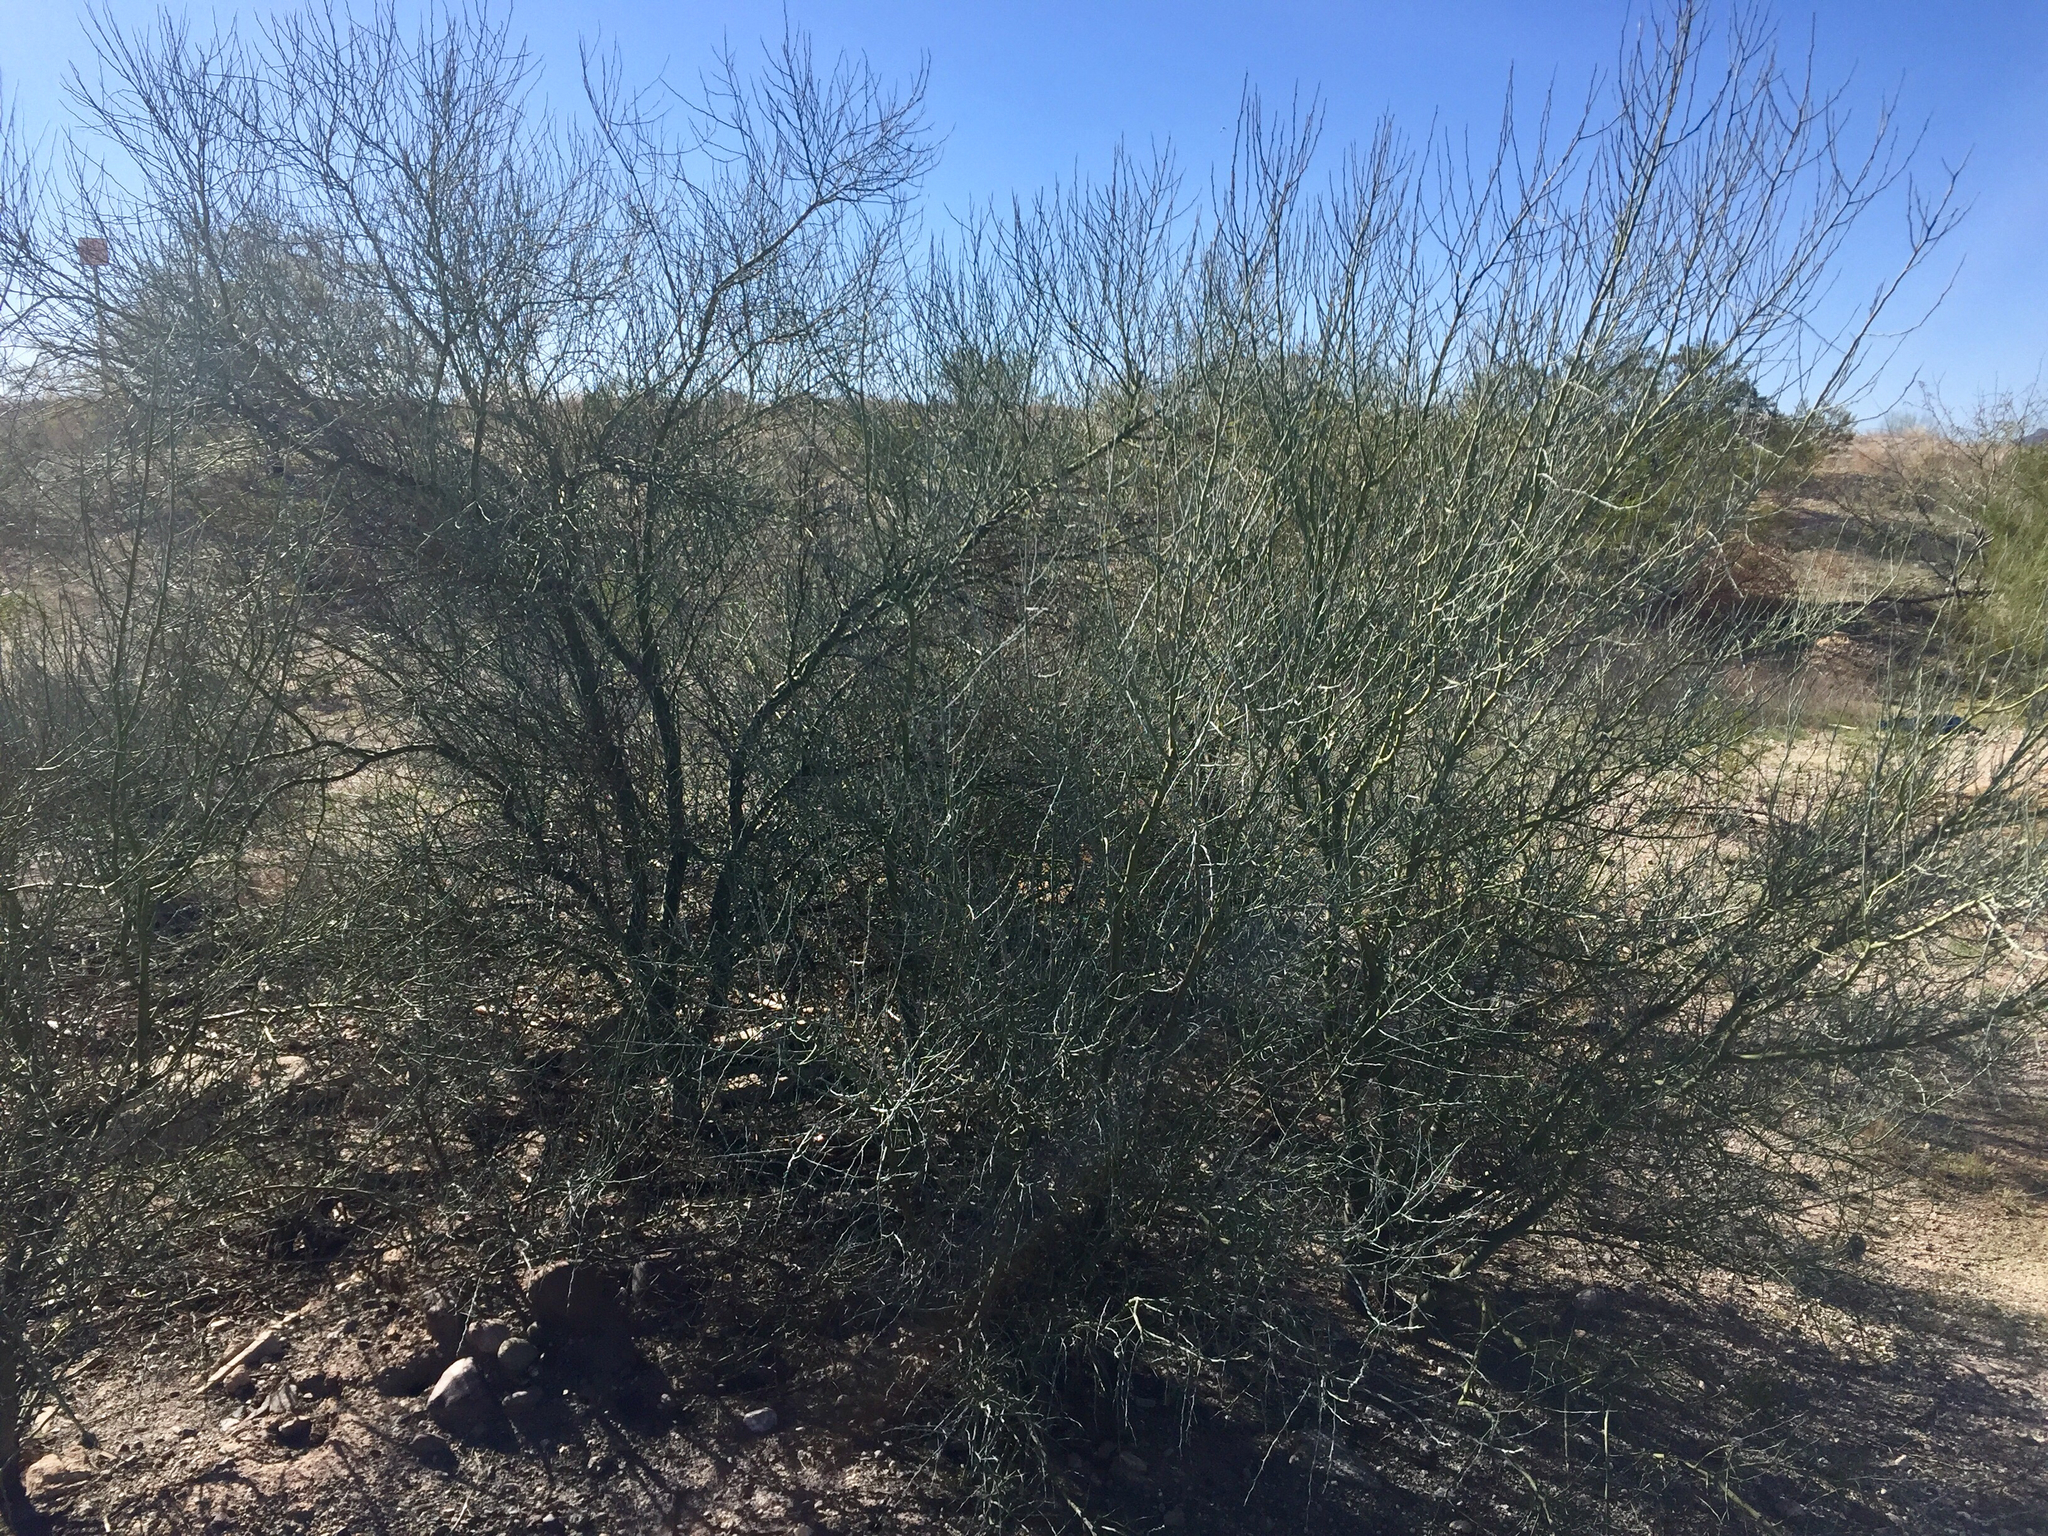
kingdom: Plantae
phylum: Tracheophyta
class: Magnoliopsida
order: Fabales
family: Fabaceae
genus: Parkinsonia
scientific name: Parkinsonia florida
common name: Blue paloverde
